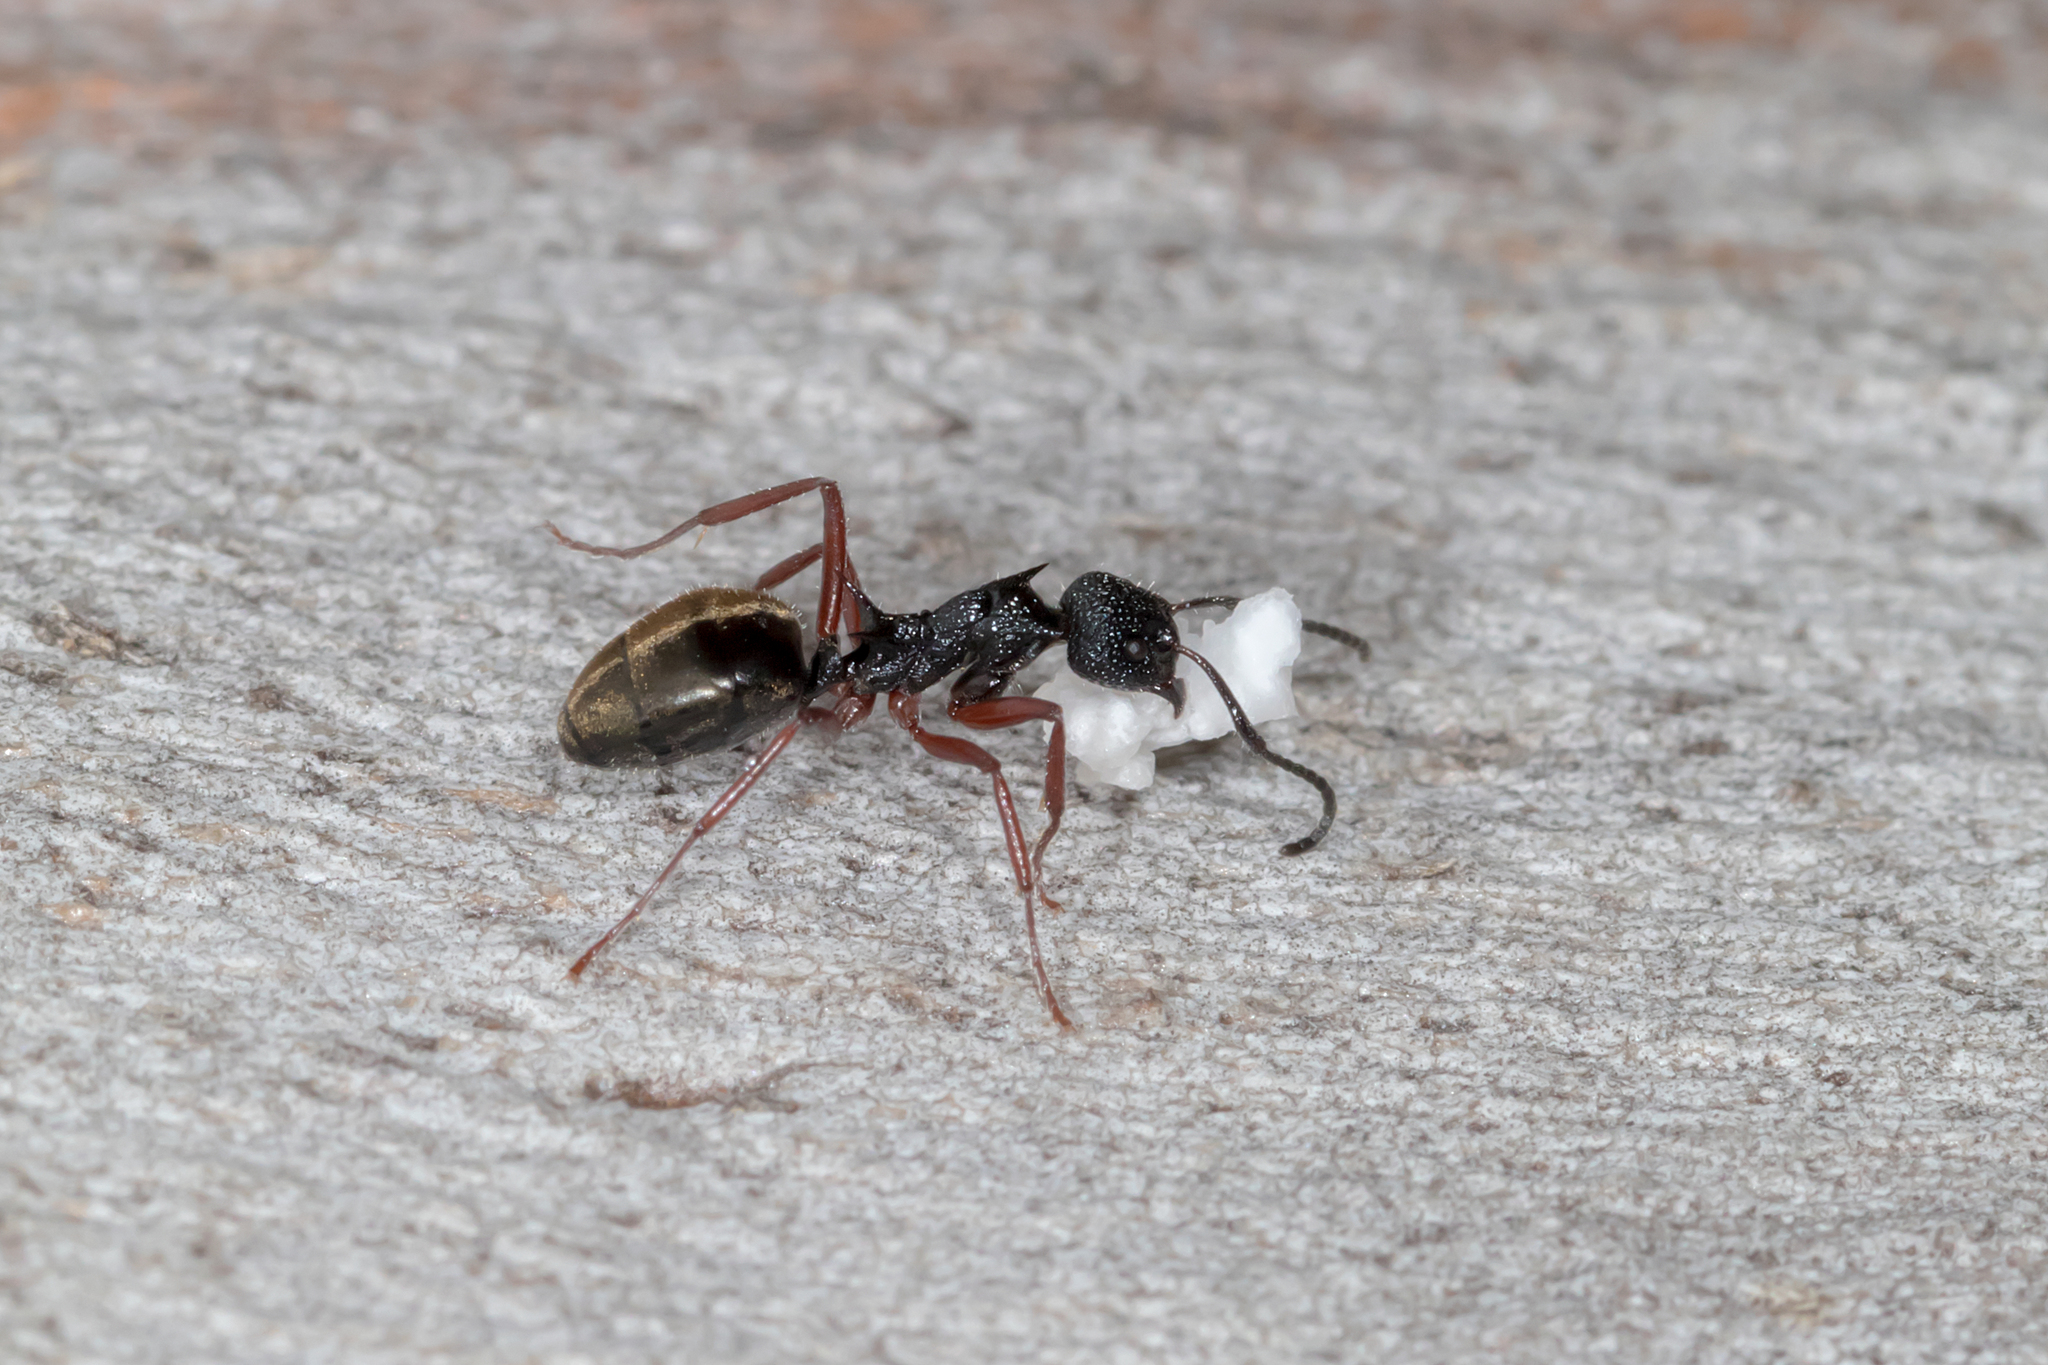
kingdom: Animalia
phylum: Arthropoda
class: Insecta
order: Hymenoptera
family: Formicidae
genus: Dolichoderus
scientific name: Dolichoderus doriae
